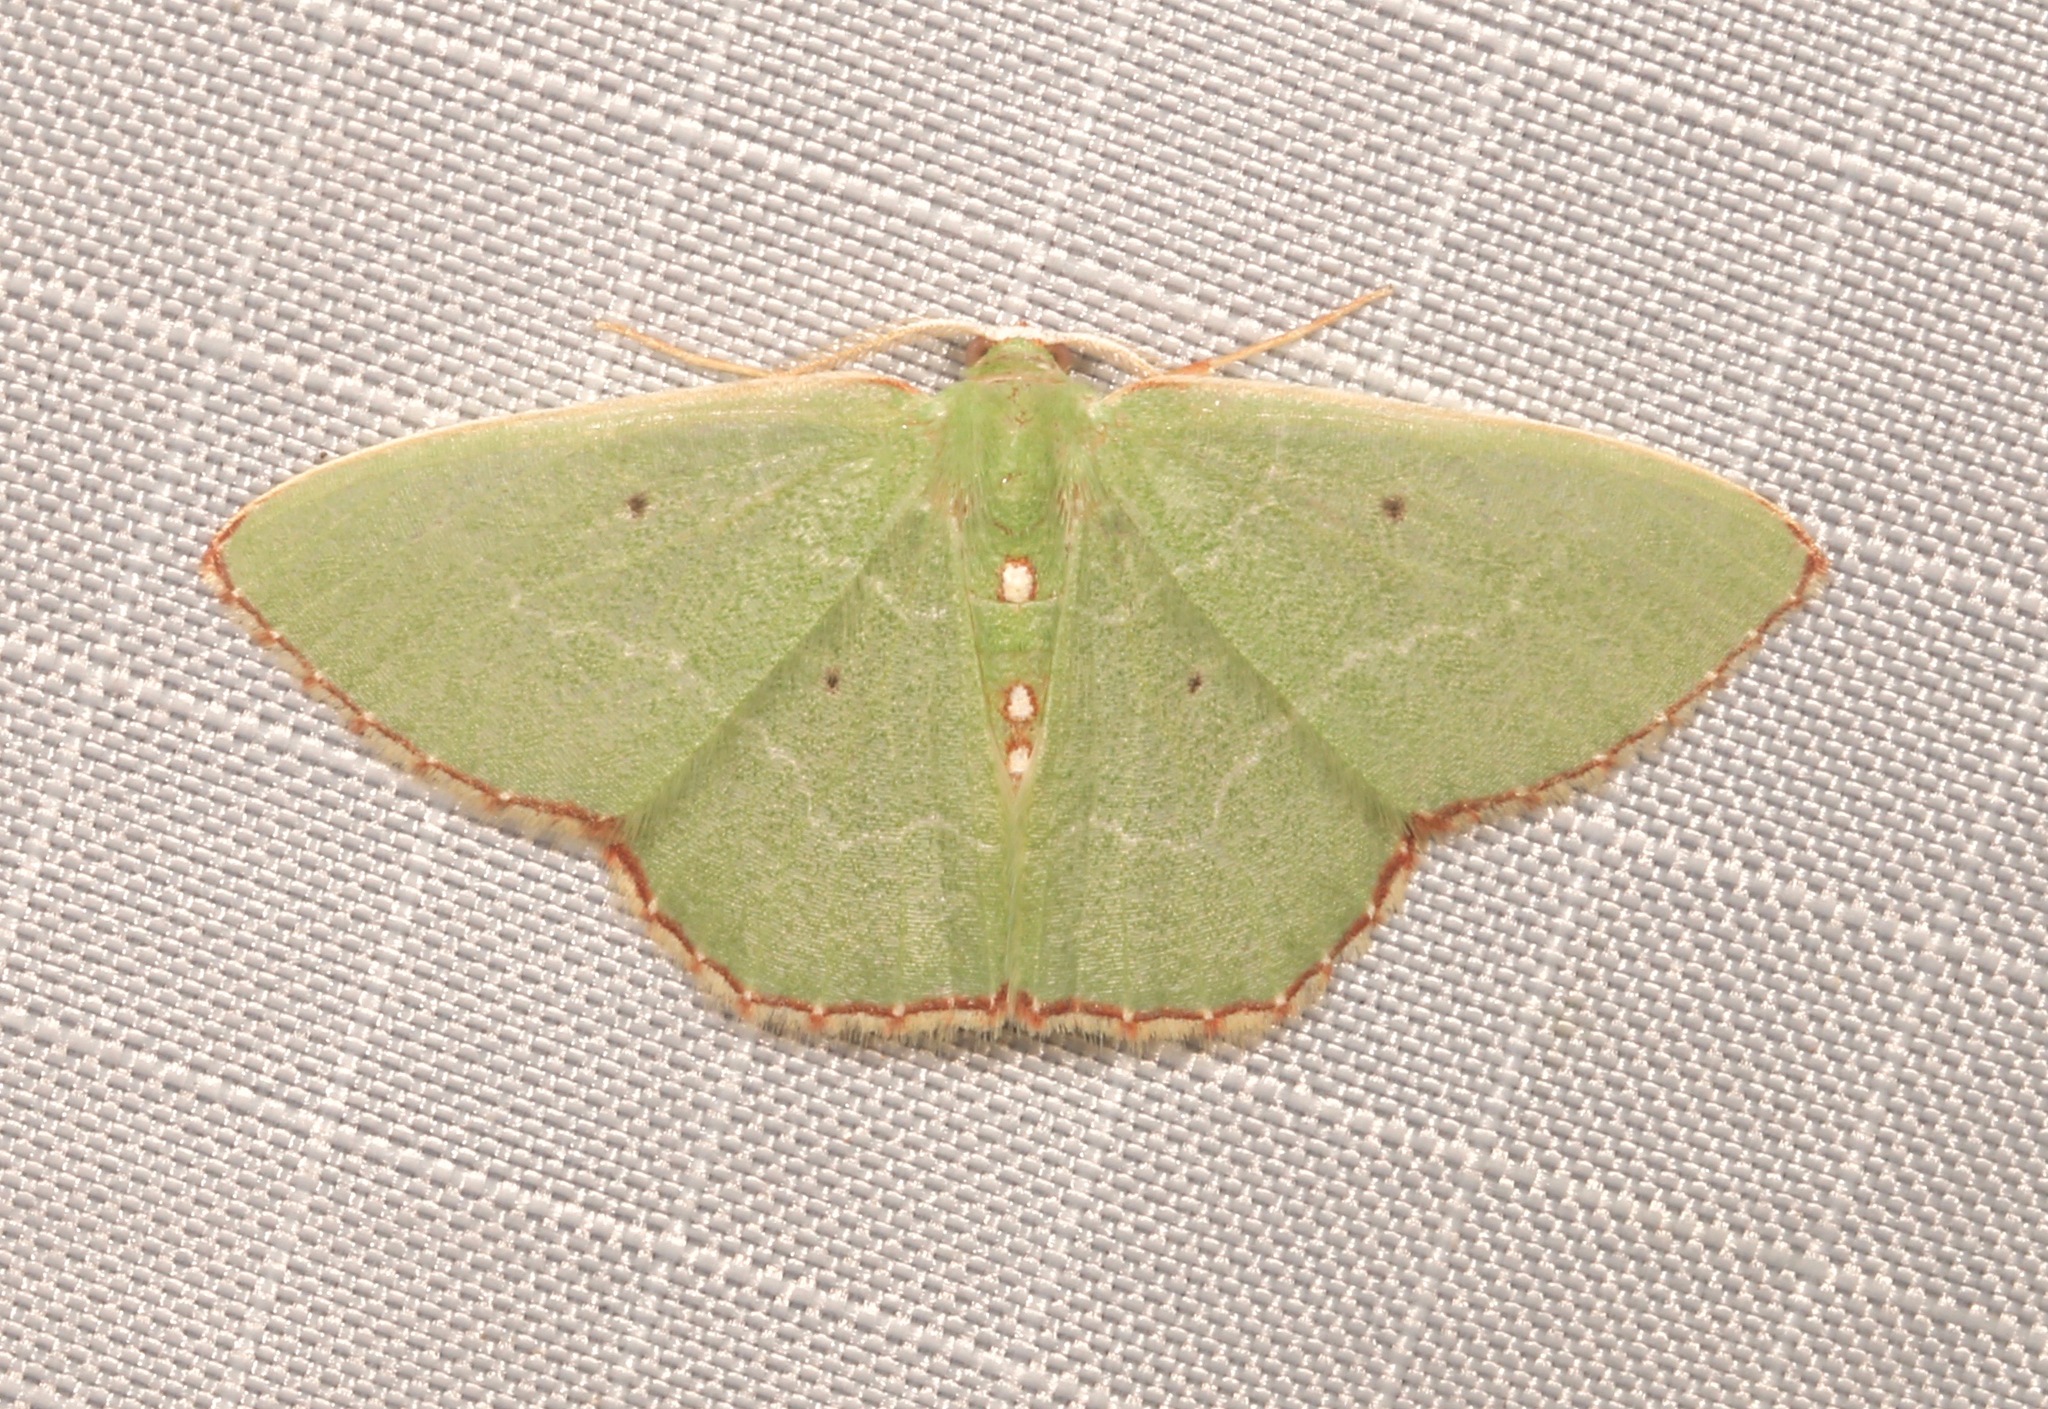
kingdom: Animalia
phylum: Arthropoda
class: Insecta
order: Lepidoptera
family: Geometridae
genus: Nemoria
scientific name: Nemoria lixaria
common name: Red-bordered emerald
